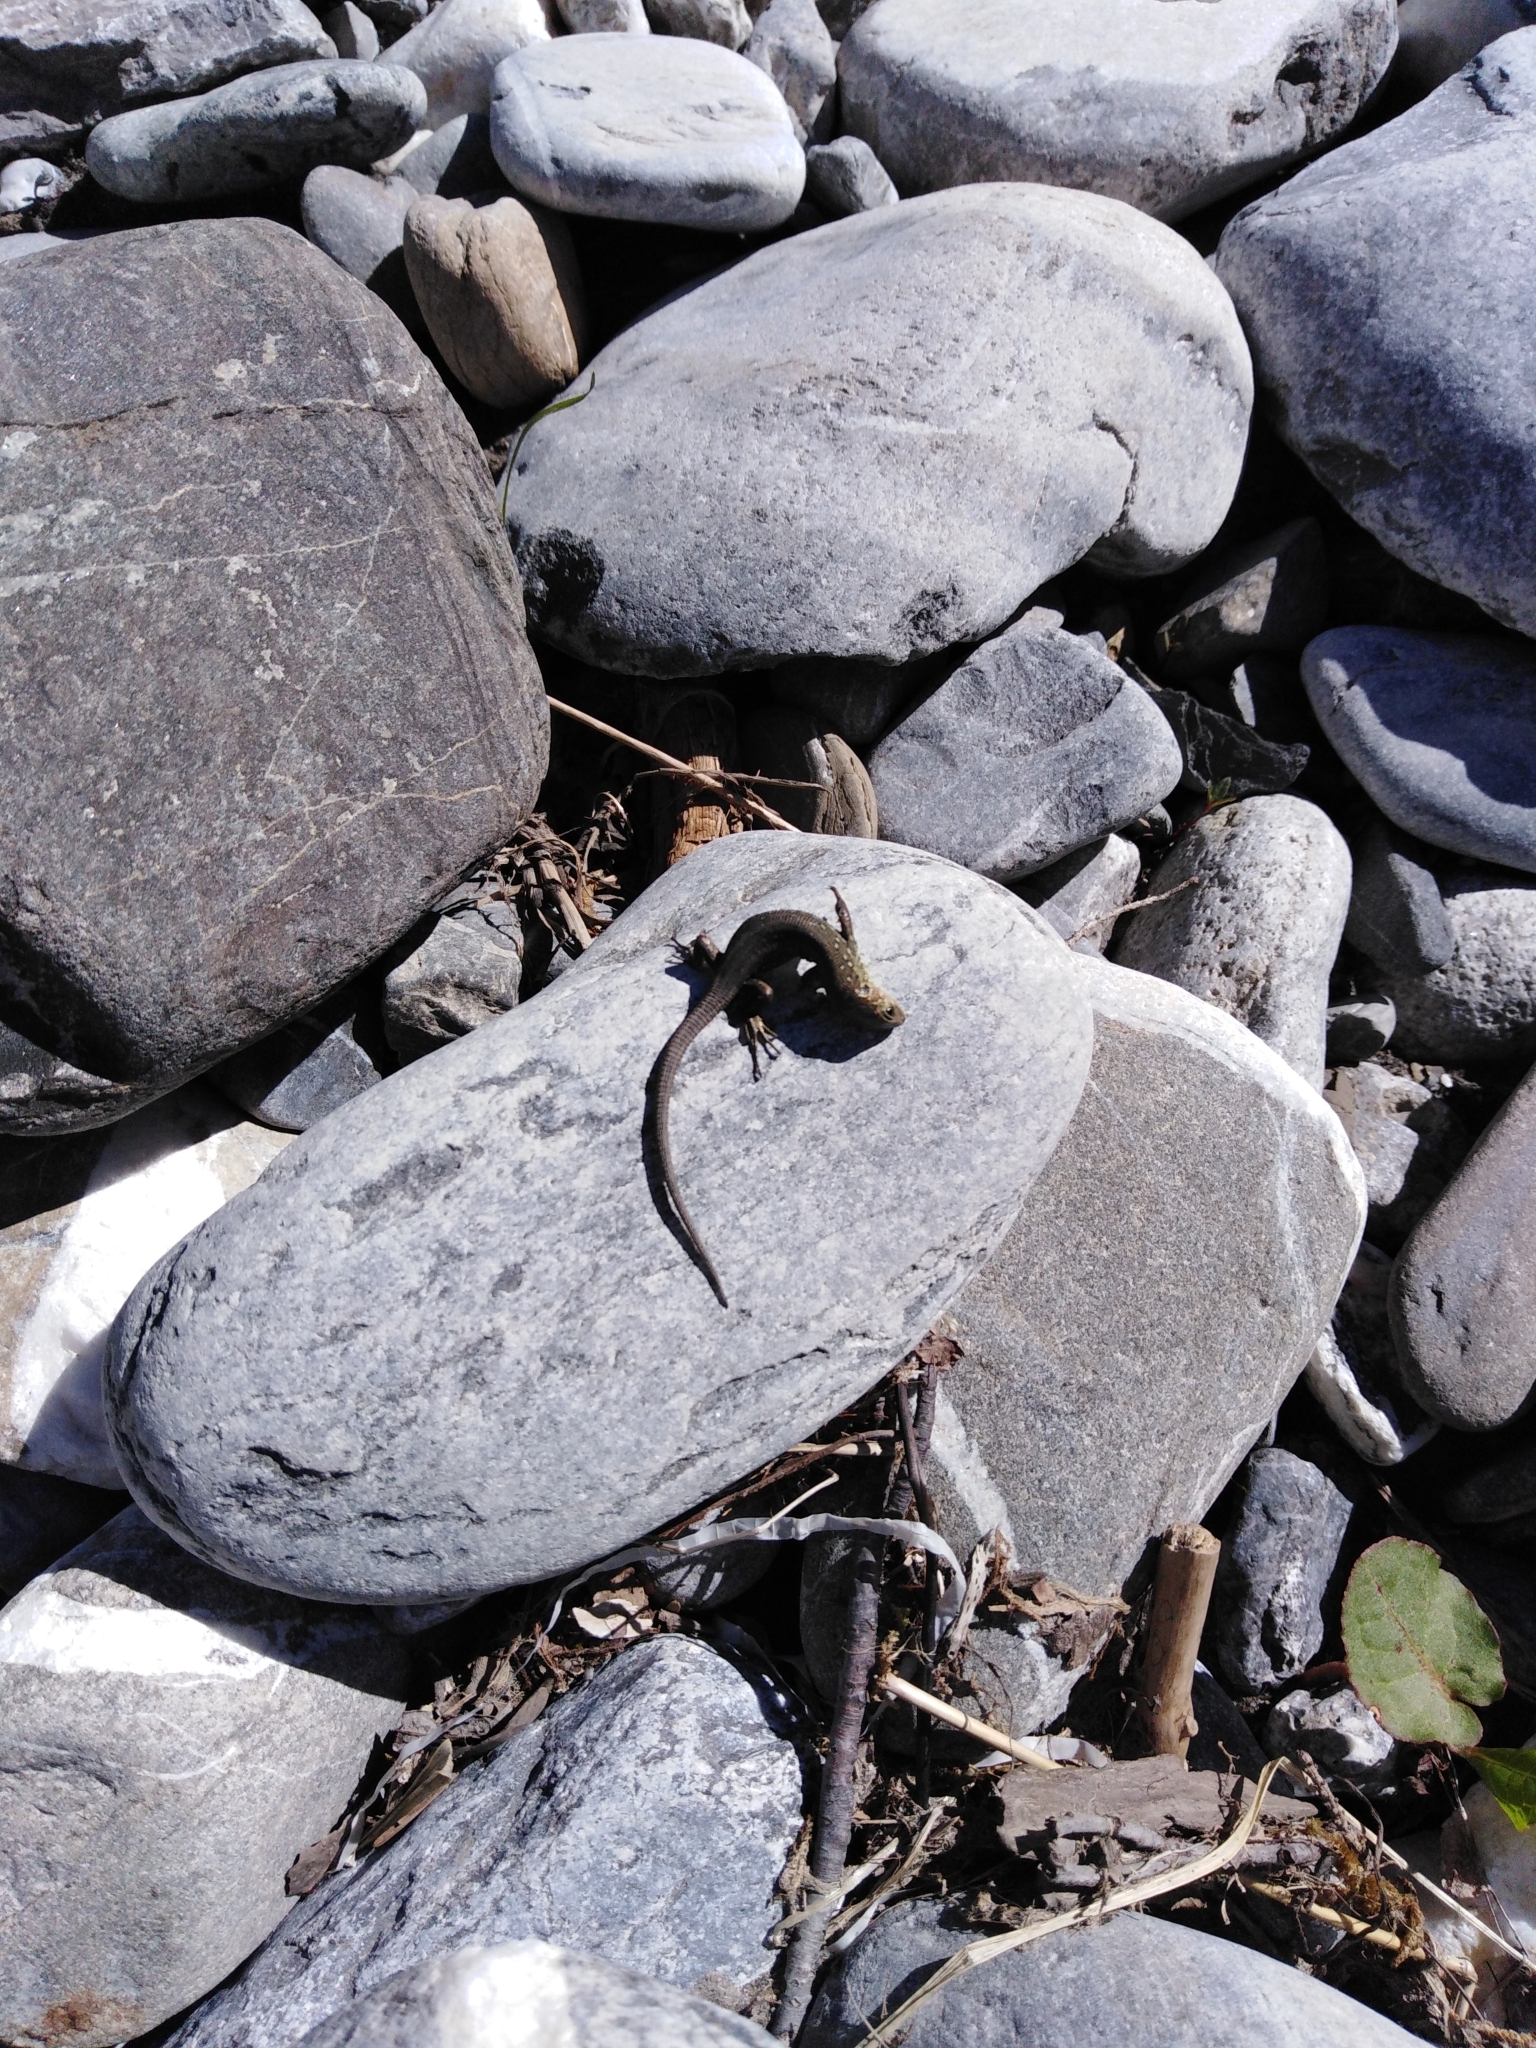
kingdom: Animalia
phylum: Chordata
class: Squamata
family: Lacertidae
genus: Lacerta
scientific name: Lacerta agilis
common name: Sand lizard
